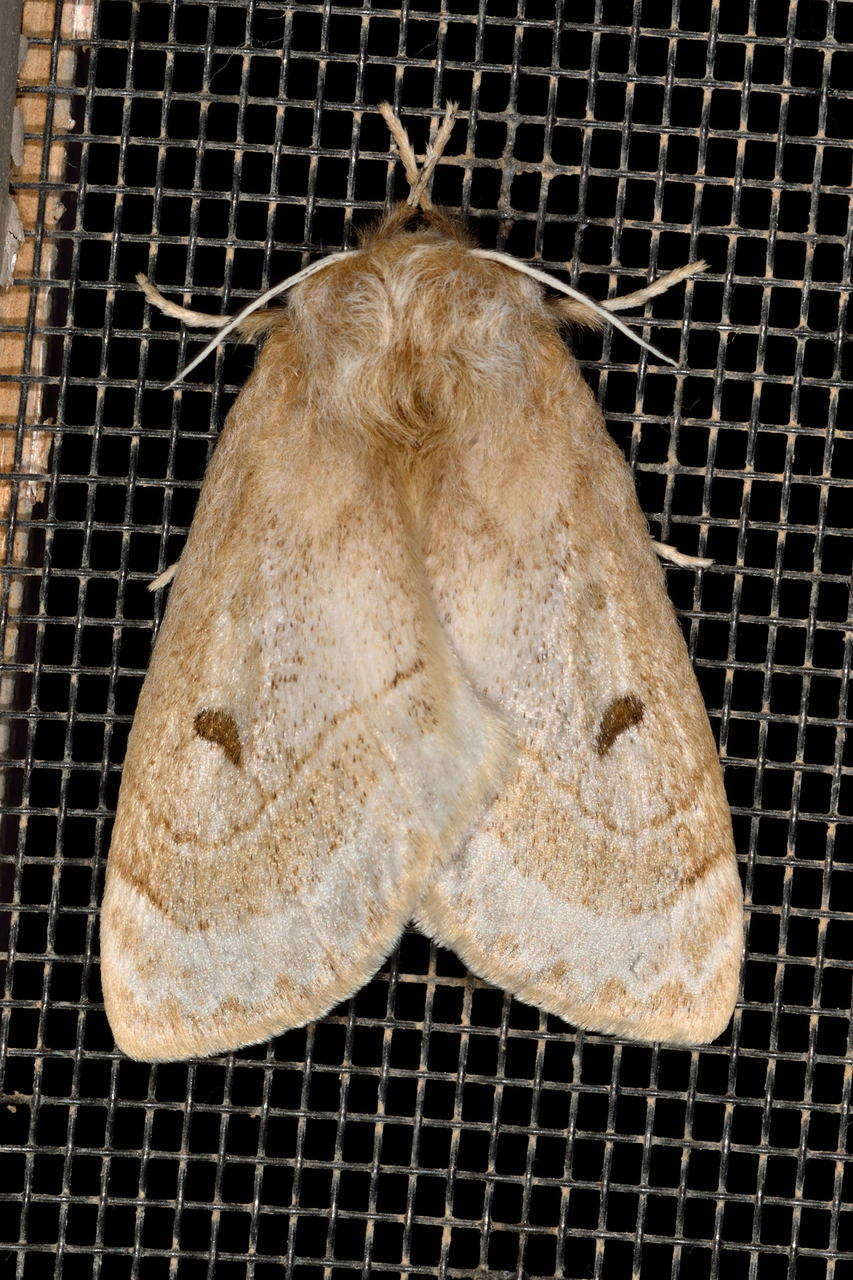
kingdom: Animalia
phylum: Arthropoda
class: Insecta
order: Lepidoptera
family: Anthelidae
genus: Anthela
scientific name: Anthela ochroptera
